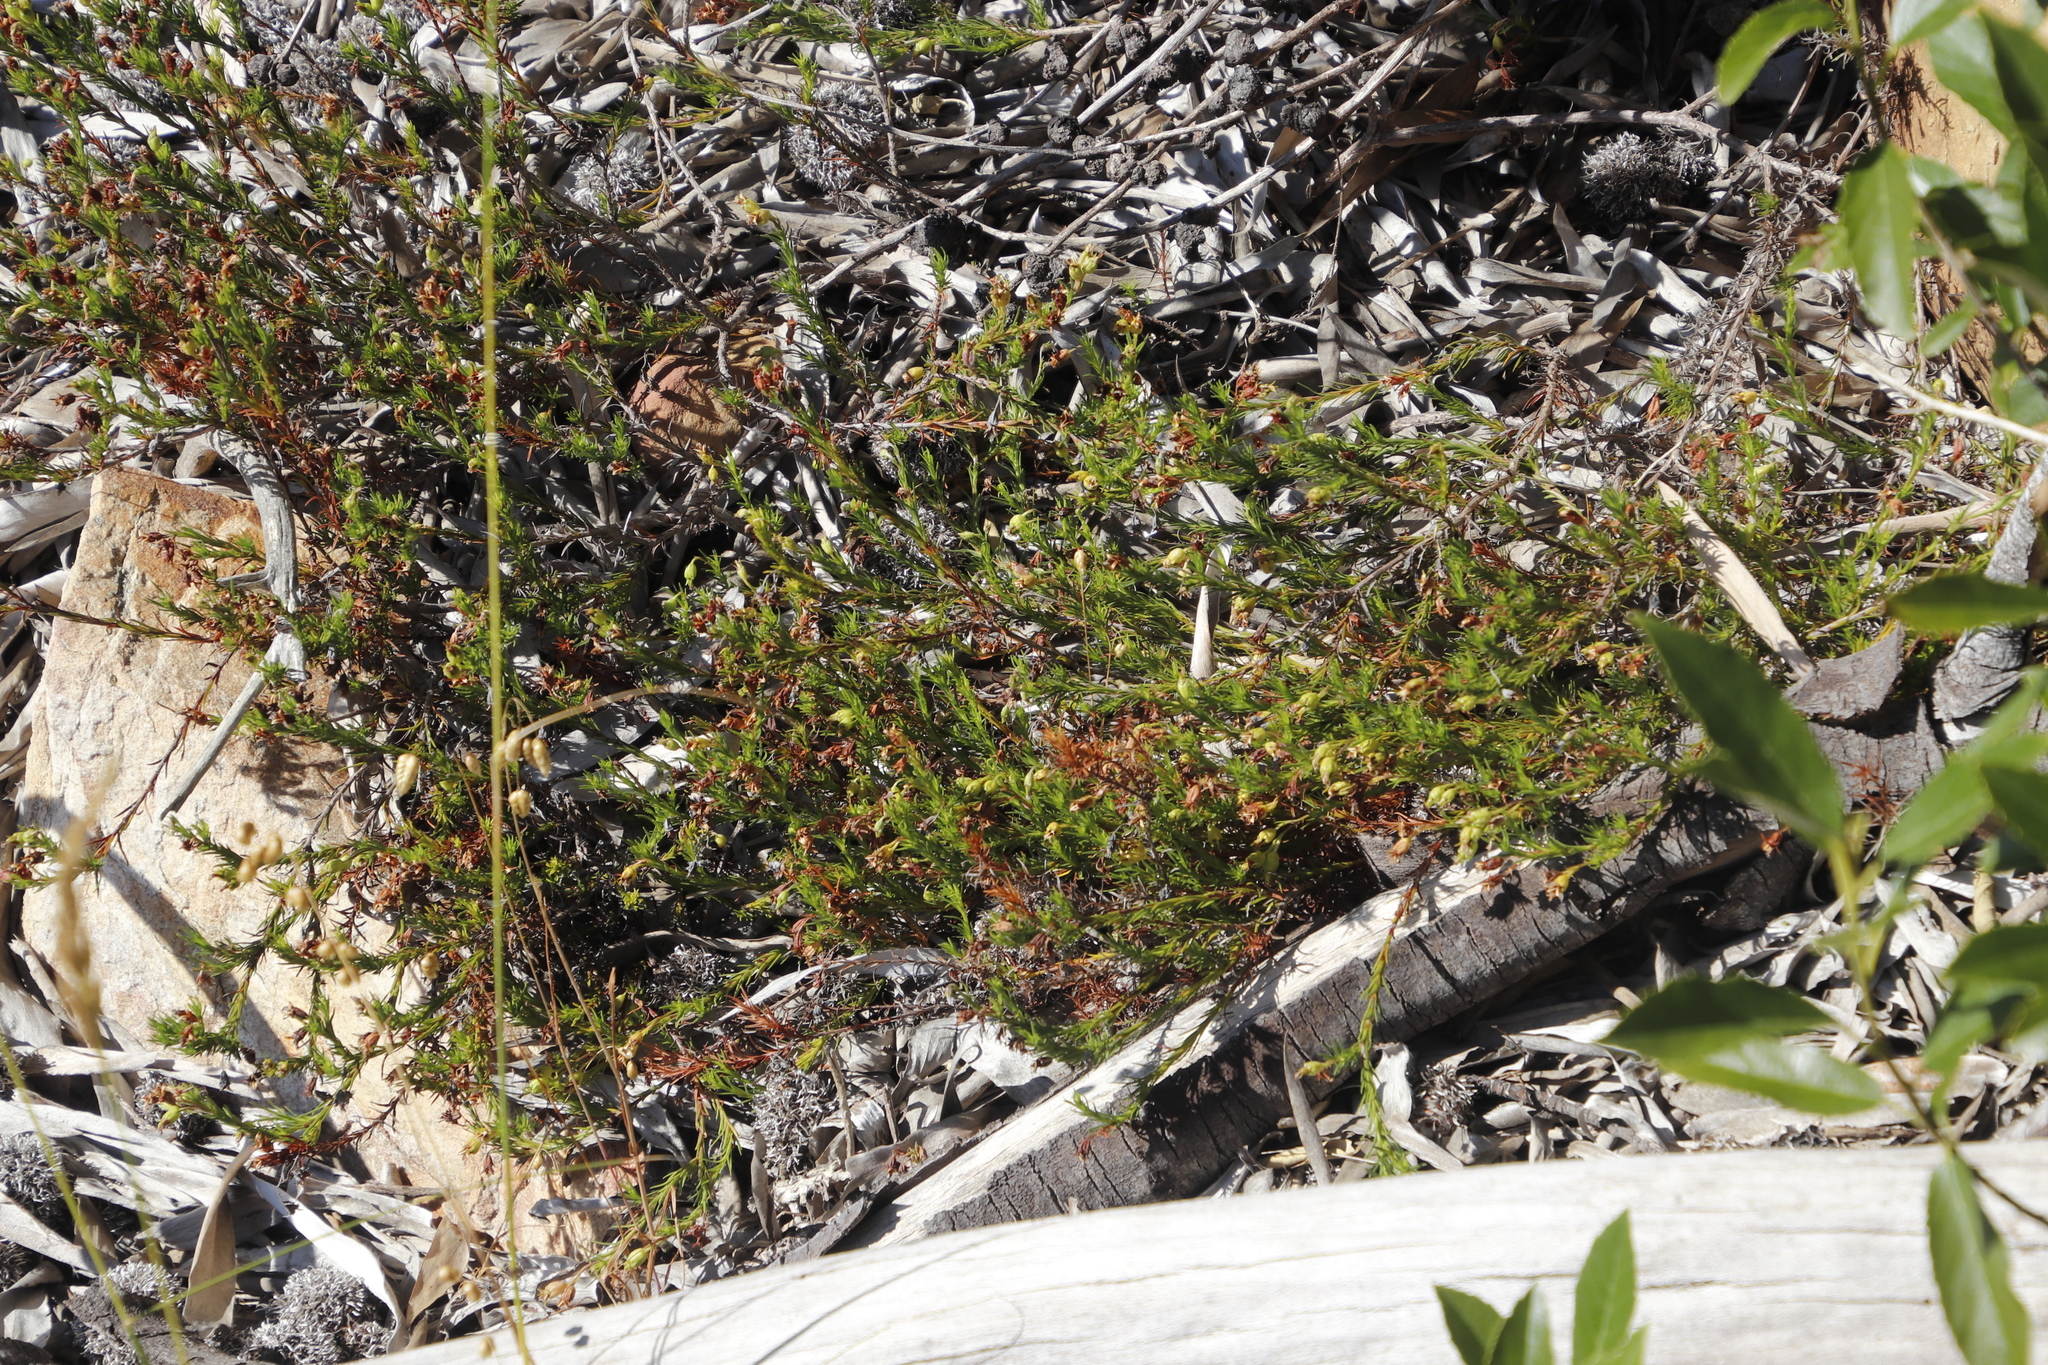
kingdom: Plantae
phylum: Tracheophyta
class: Magnoliopsida
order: Asterales
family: Campanulaceae
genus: Lobelia
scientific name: Lobelia pinifolia
